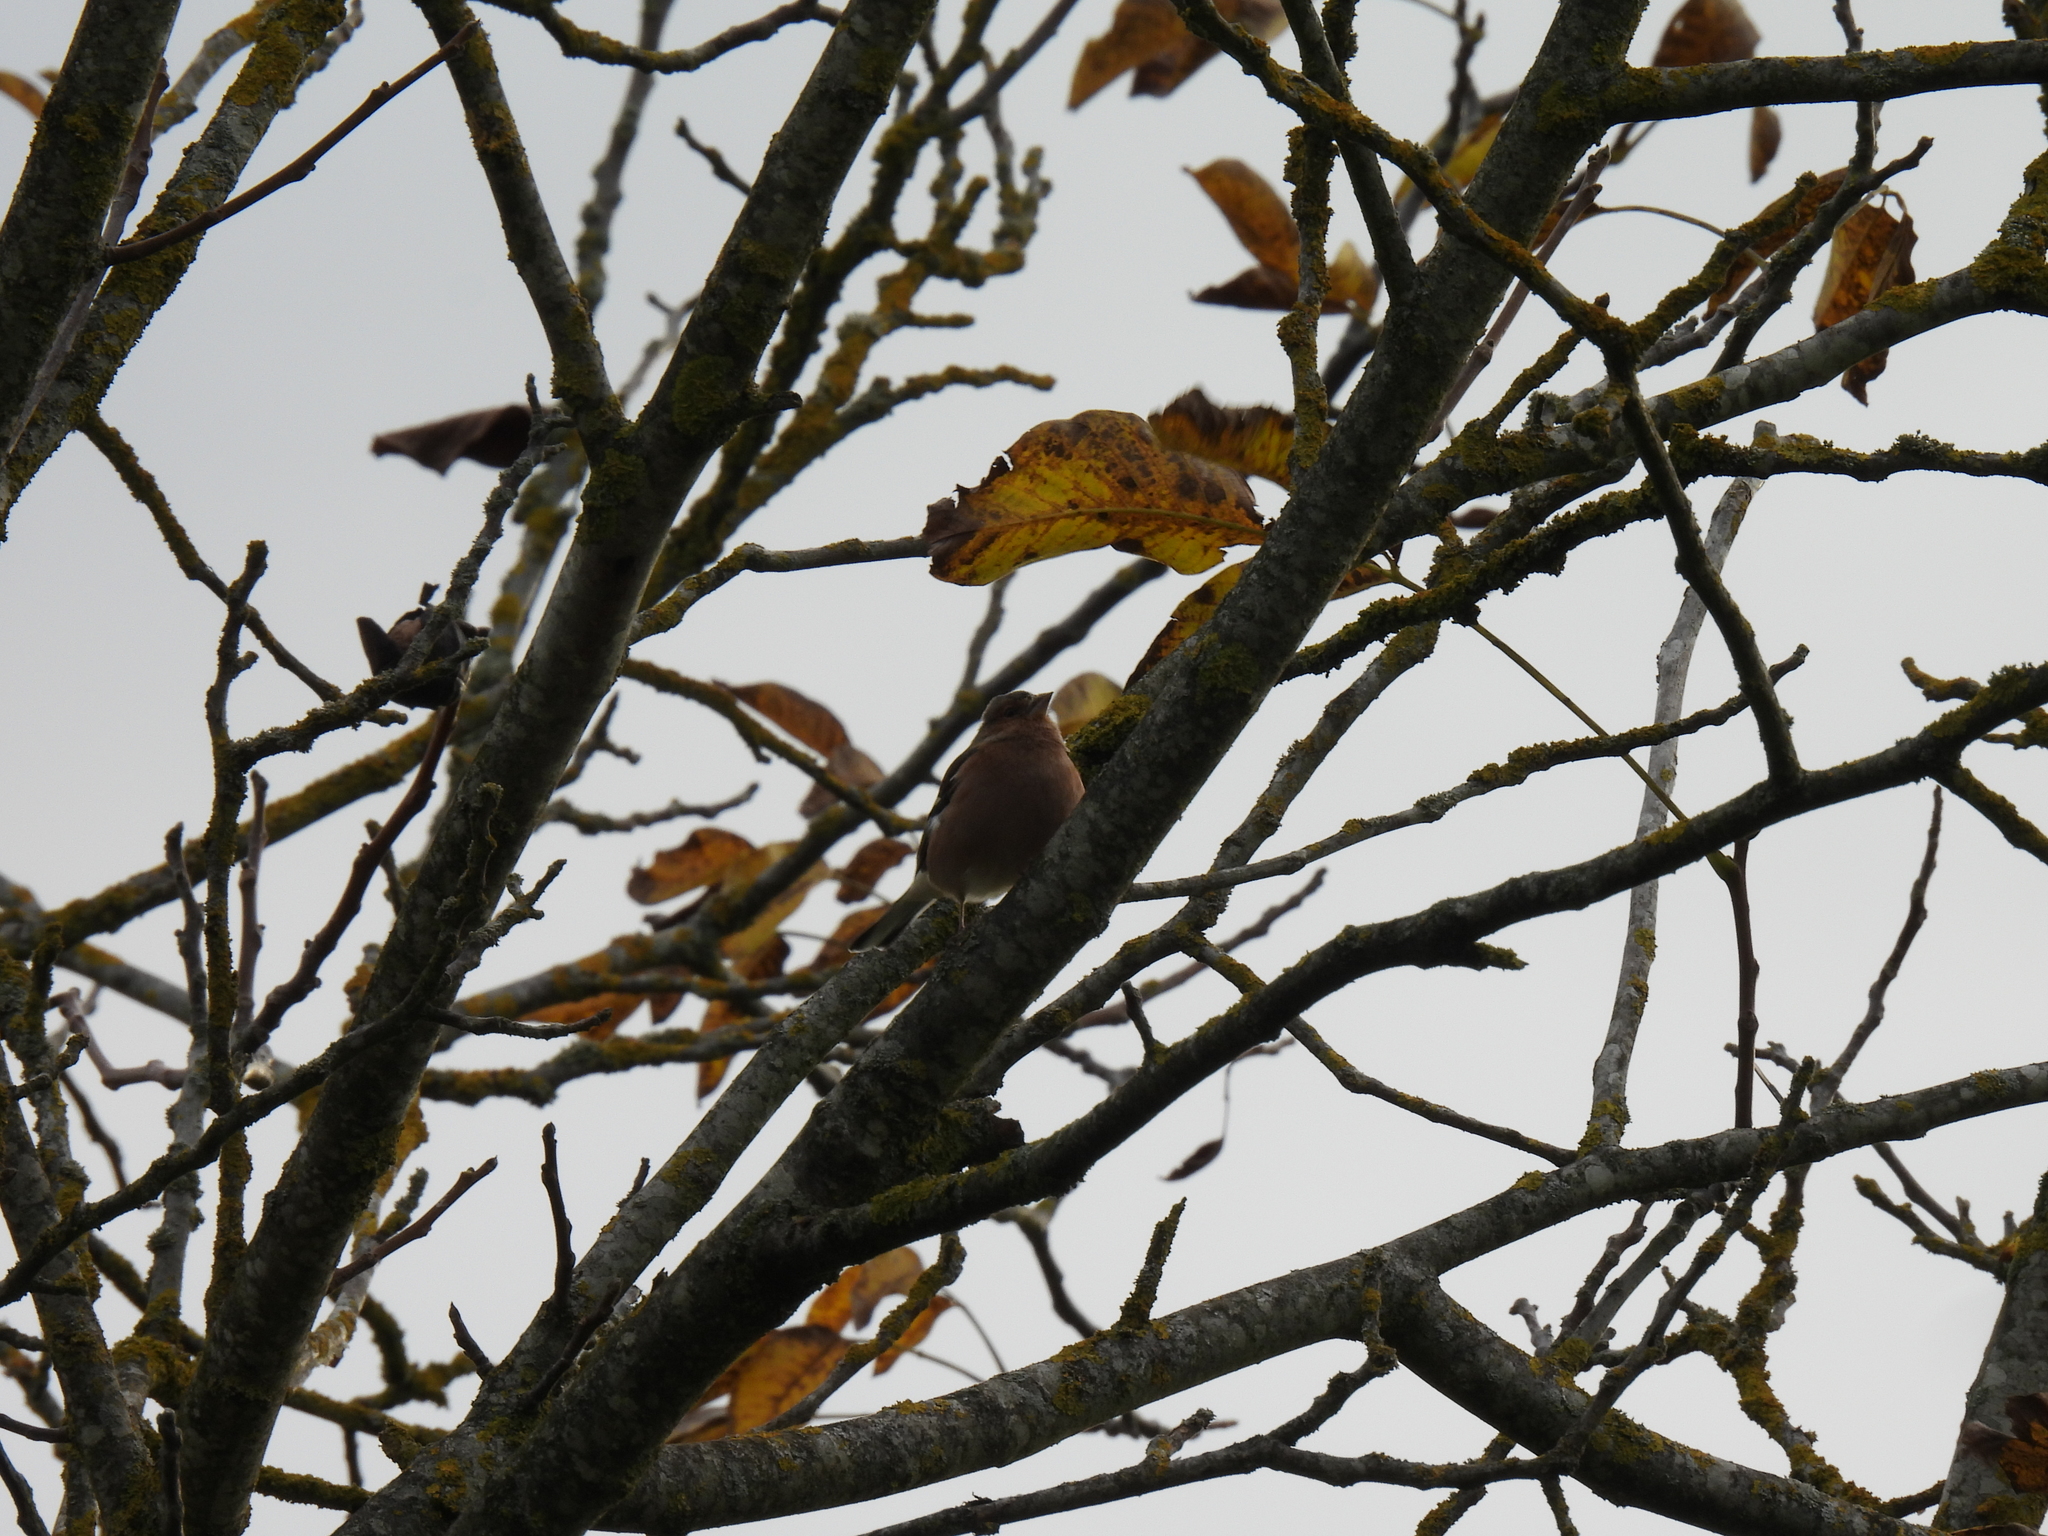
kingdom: Animalia
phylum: Chordata
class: Aves
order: Passeriformes
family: Fringillidae
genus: Fringilla
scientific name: Fringilla coelebs
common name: Common chaffinch
